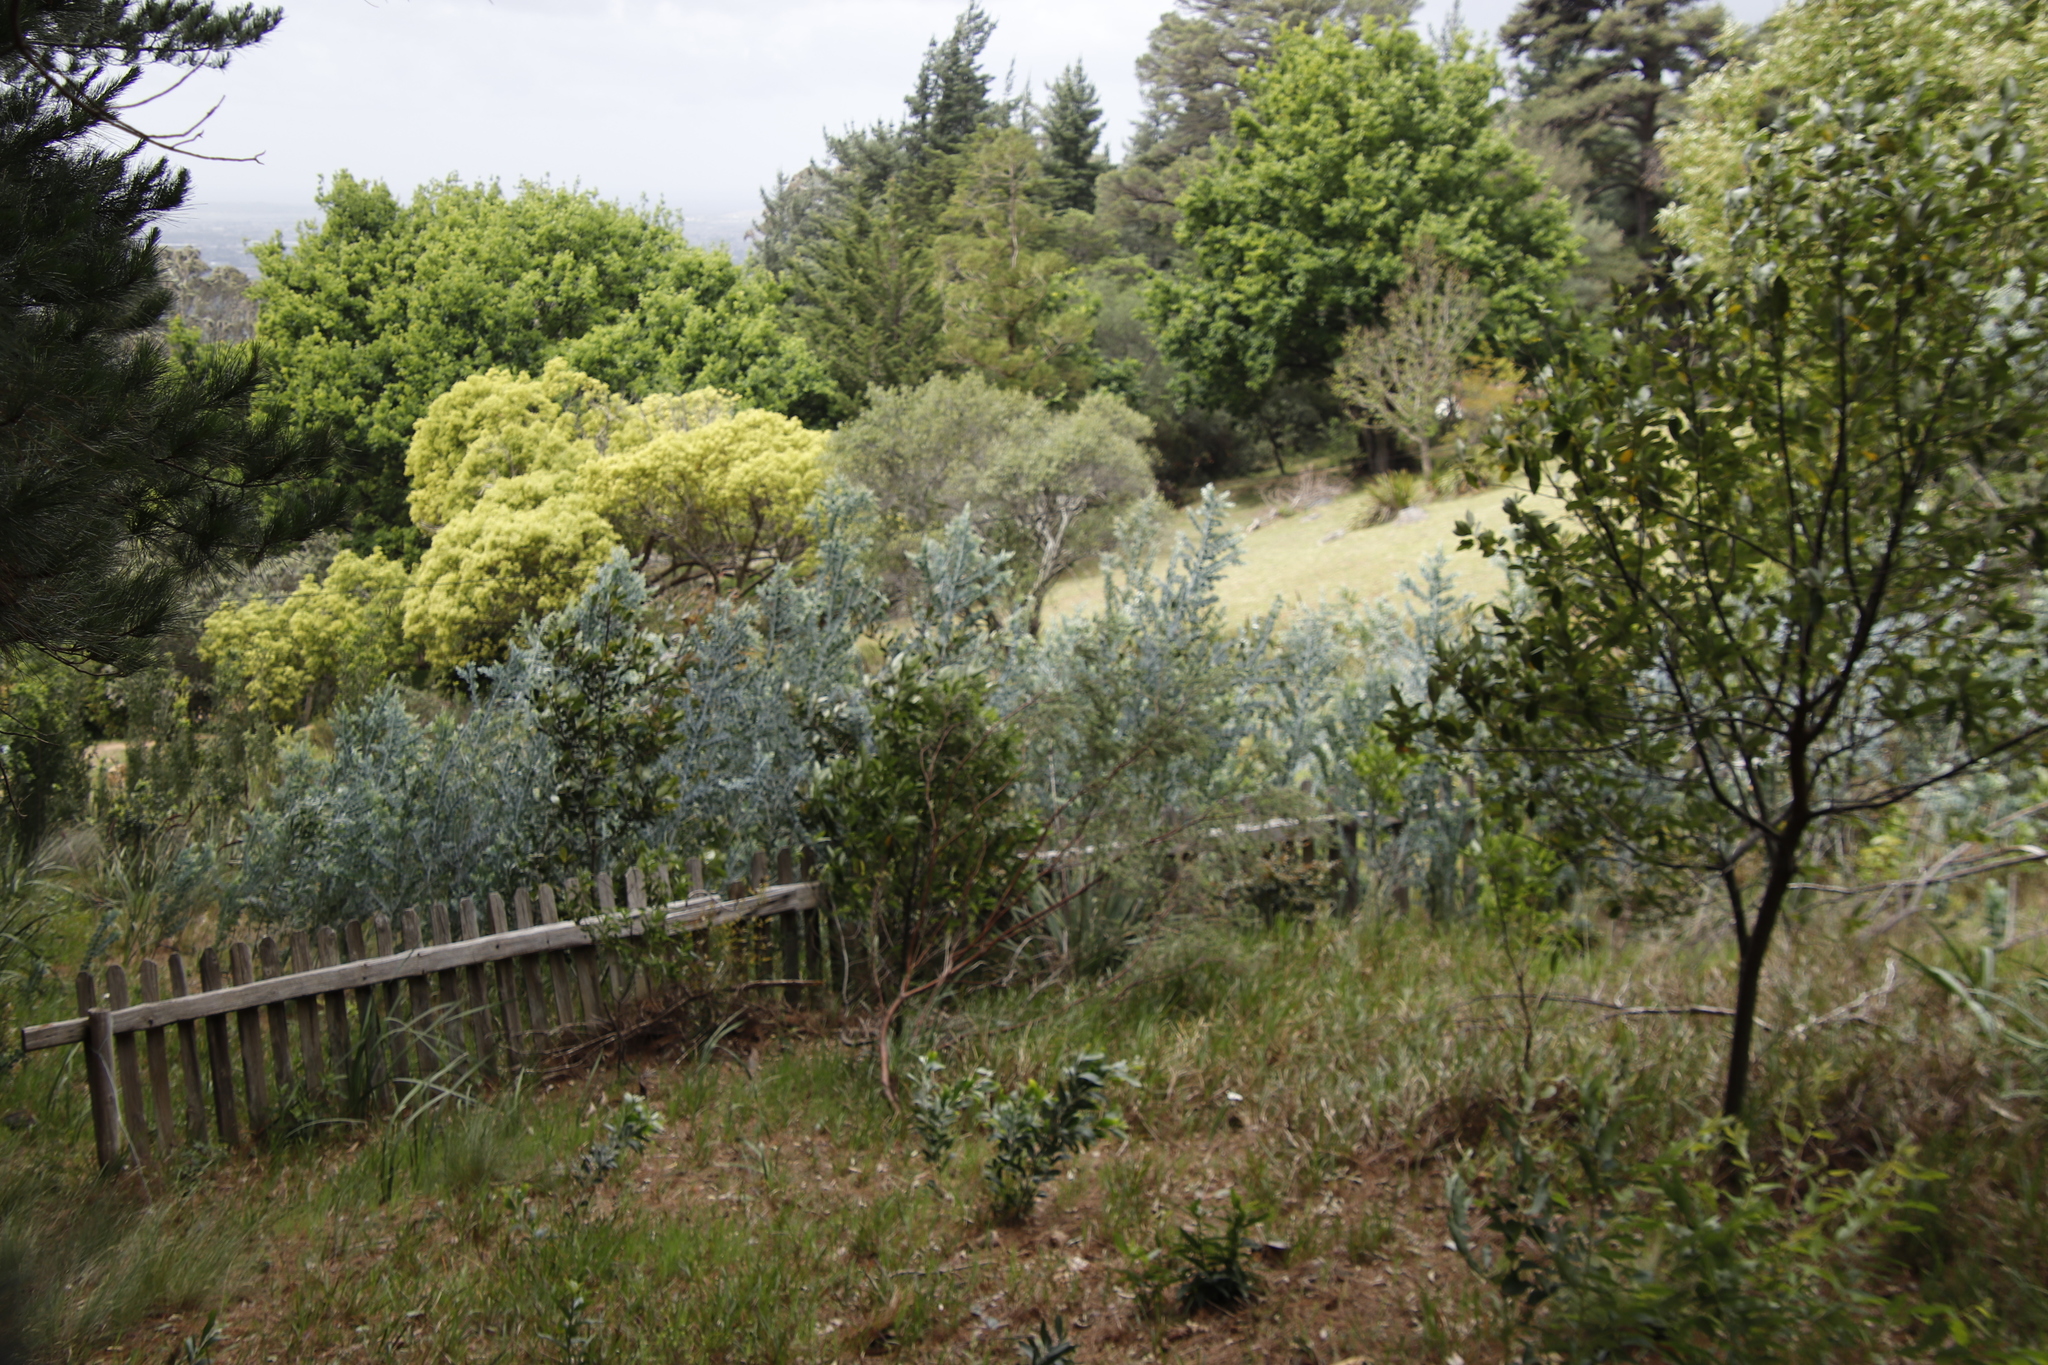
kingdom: Plantae
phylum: Tracheophyta
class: Magnoliopsida
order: Fabales
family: Fabaceae
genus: Acacia
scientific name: Acacia podalyriifolia
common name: Pearl wattle
